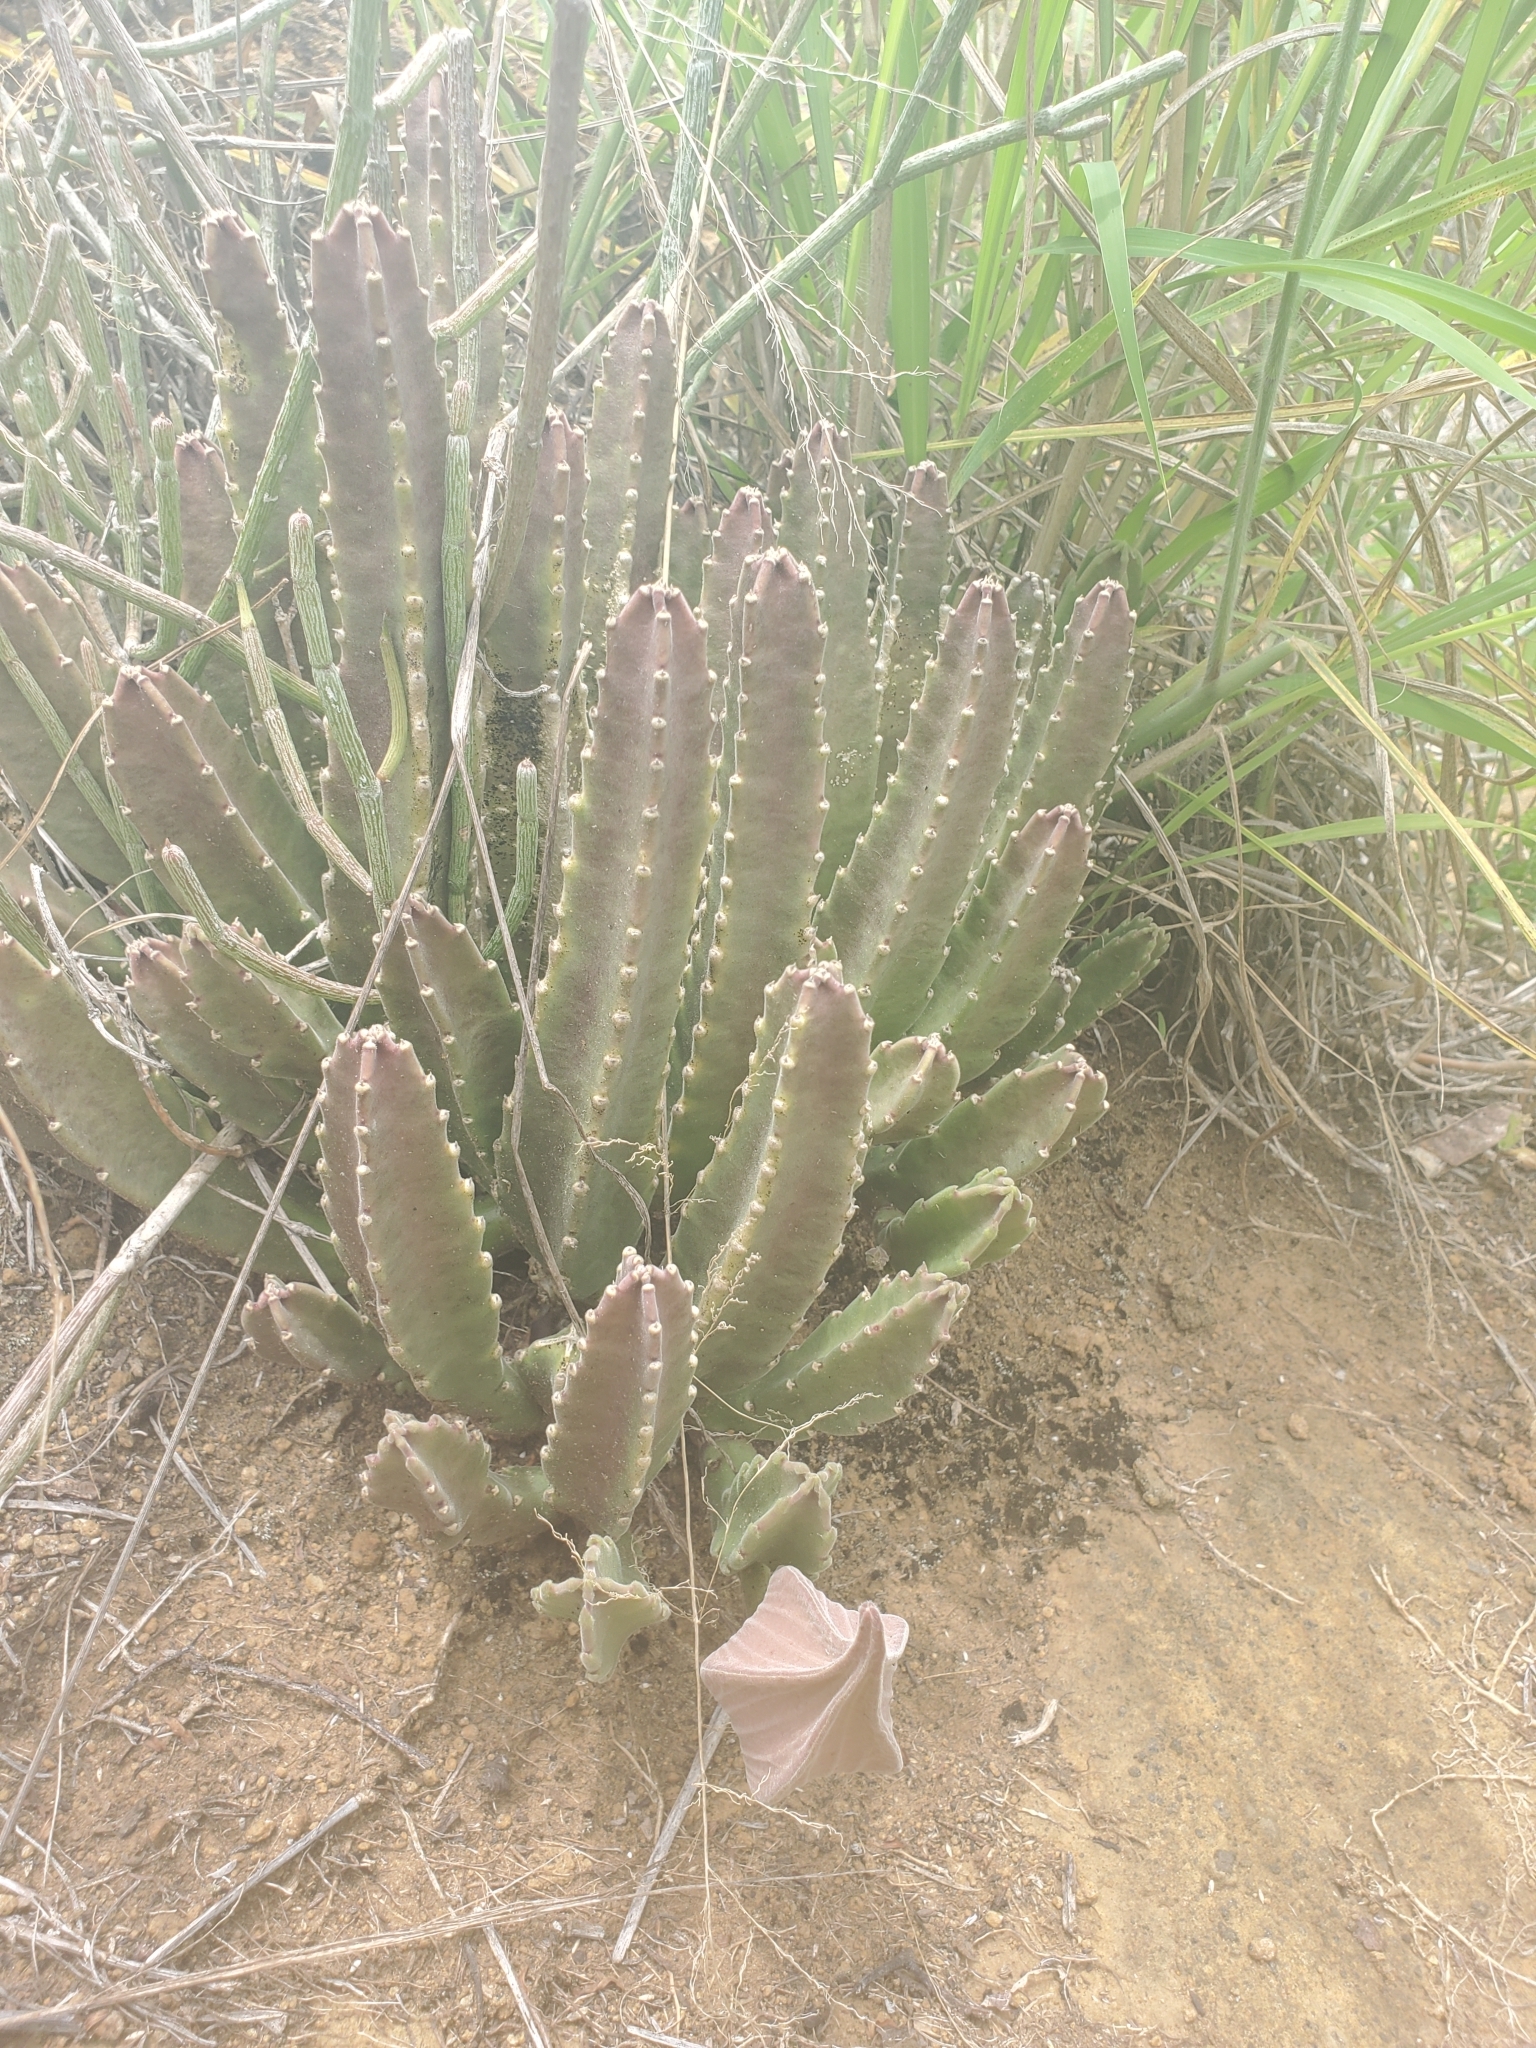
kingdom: Plantae
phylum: Tracheophyta
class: Magnoliopsida
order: Gentianales
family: Apocynaceae
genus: Ceropegia
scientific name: Ceropegia gigantea
